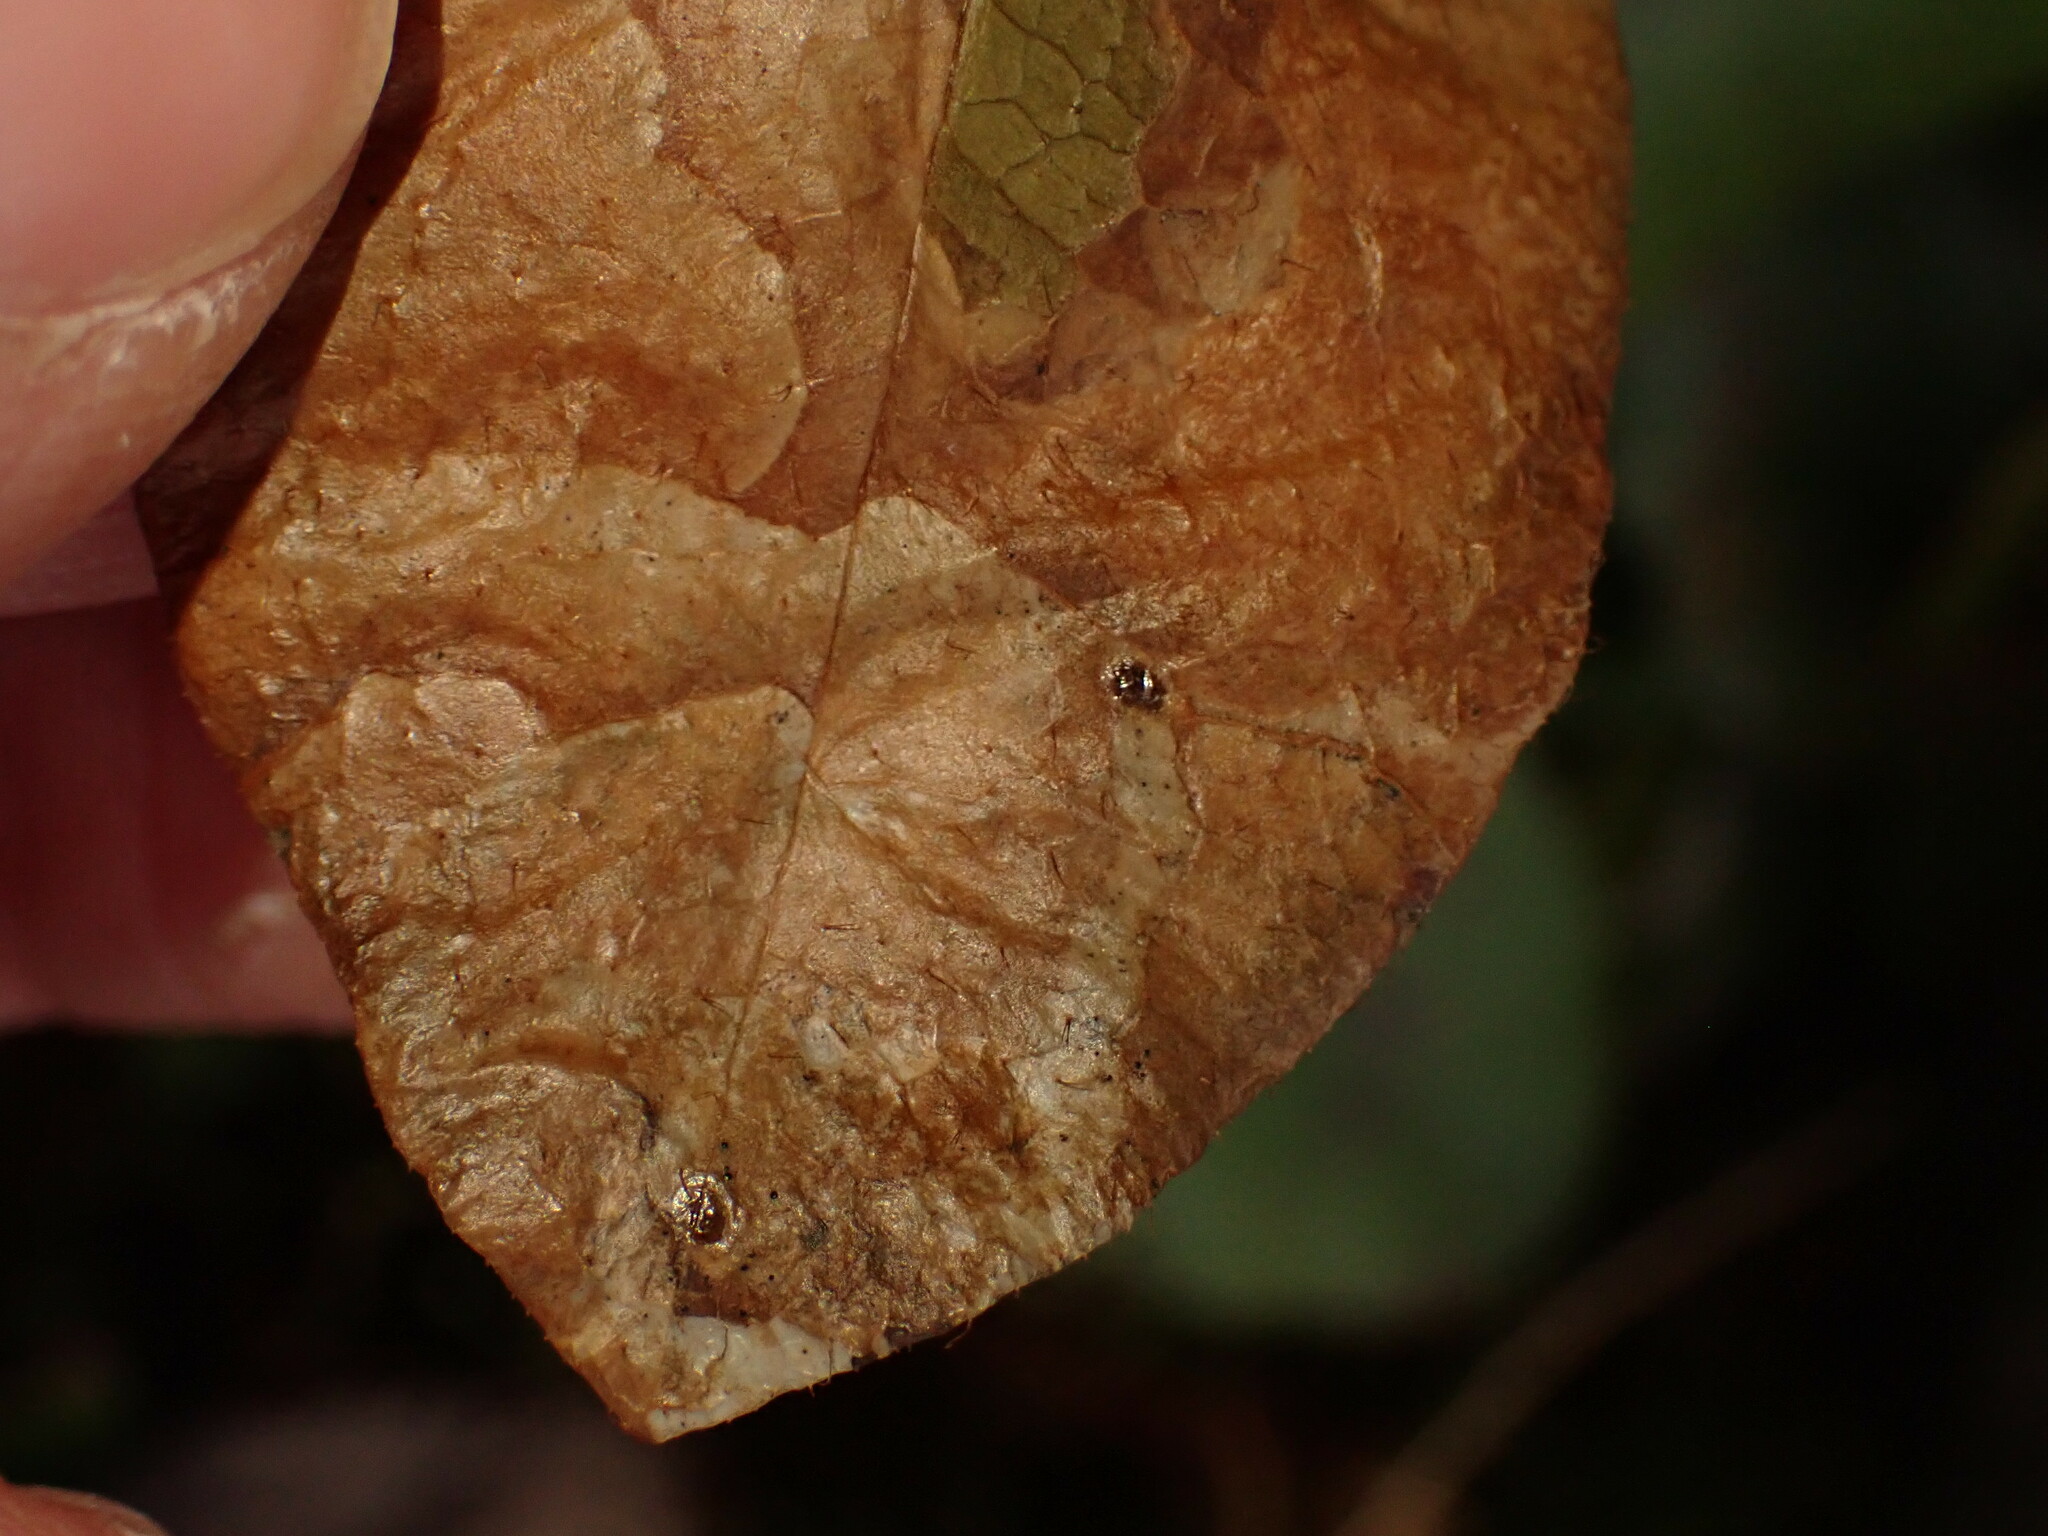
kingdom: Animalia
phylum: Arthropoda
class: Insecta
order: Coleoptera
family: Buprestidae
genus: Brachys
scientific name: Brachys
